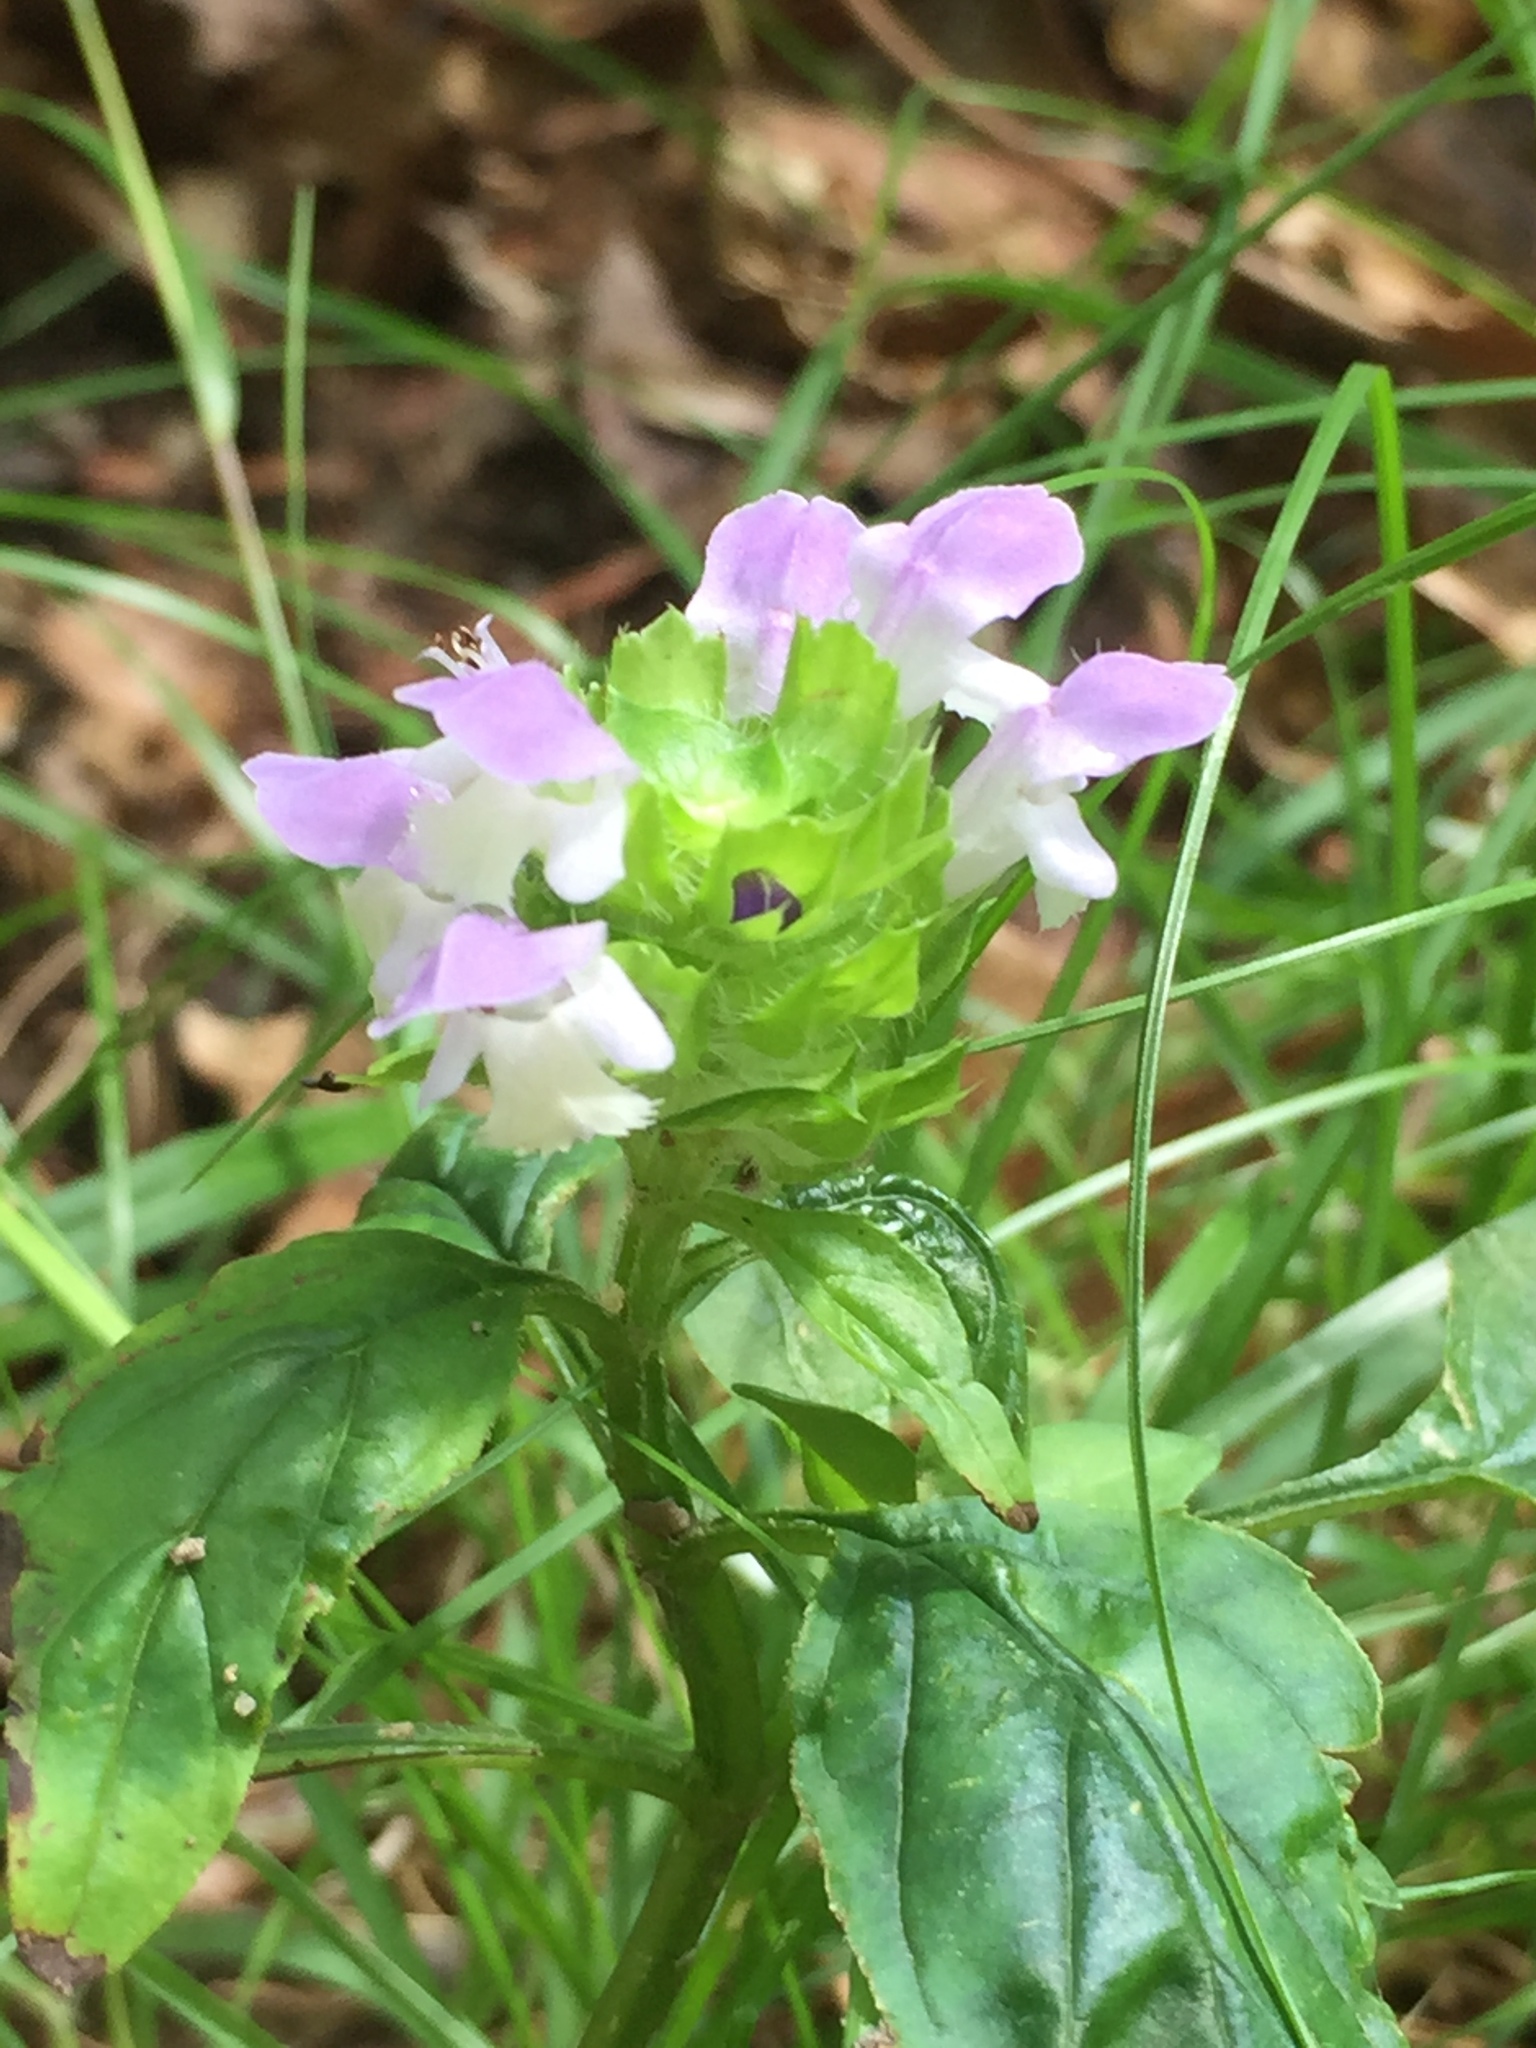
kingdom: Plantae
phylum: Tracheophyta
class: Magnoliopsida
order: Lamiales
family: Lamiaceae
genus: Prunella
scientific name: Prunella vulgaris
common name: Heal-all
